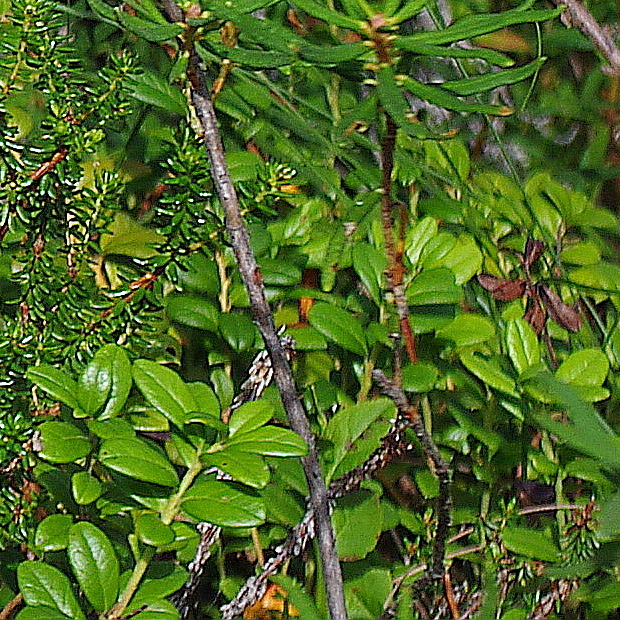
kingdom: Plantae
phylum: Tracheophyta
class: Magnoliopsida
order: Ericales
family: Ericaceae
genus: Vaccinium
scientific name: Vaccinium vitis-idaea
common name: Cowberry
